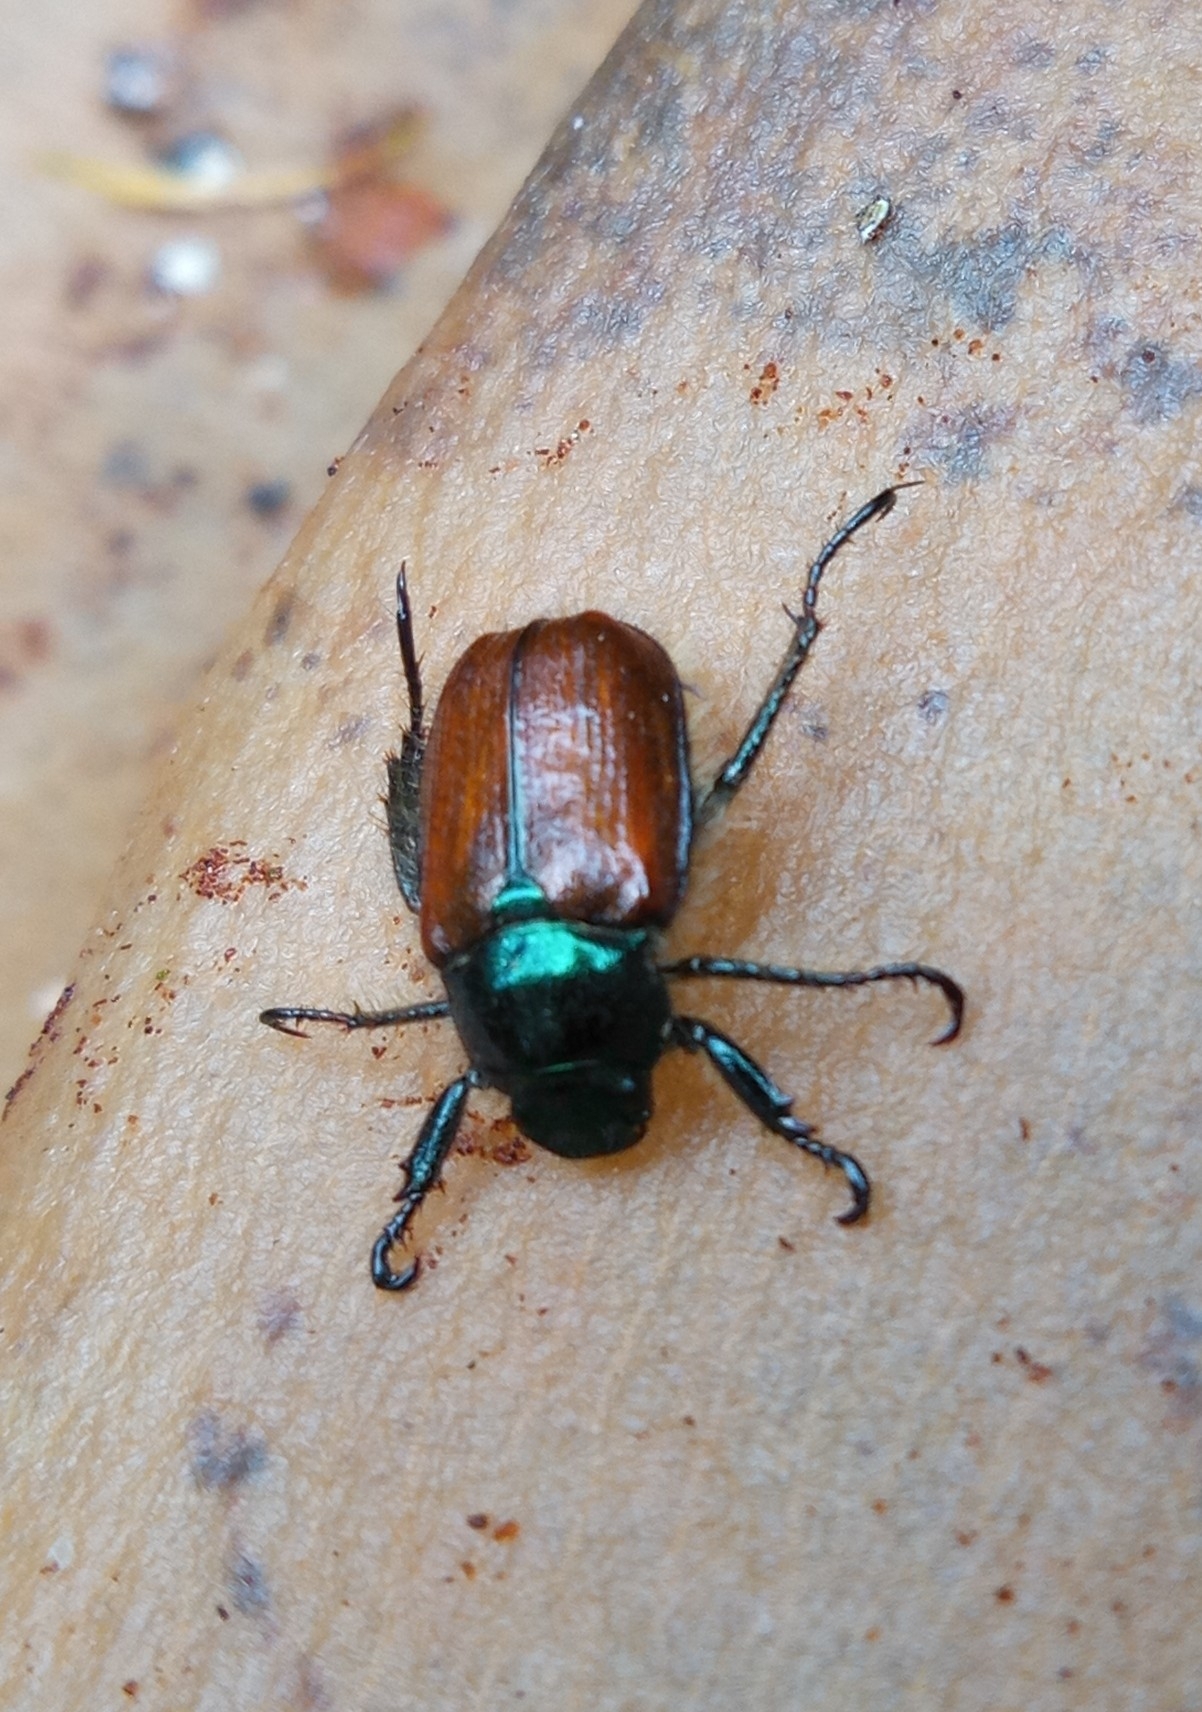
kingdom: Animalia
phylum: Arthropoda
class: Insecta
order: Coleoptera
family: Scarabaeidae
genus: Phyllopertha
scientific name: Phyllopertha horticola
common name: Garden chafer
